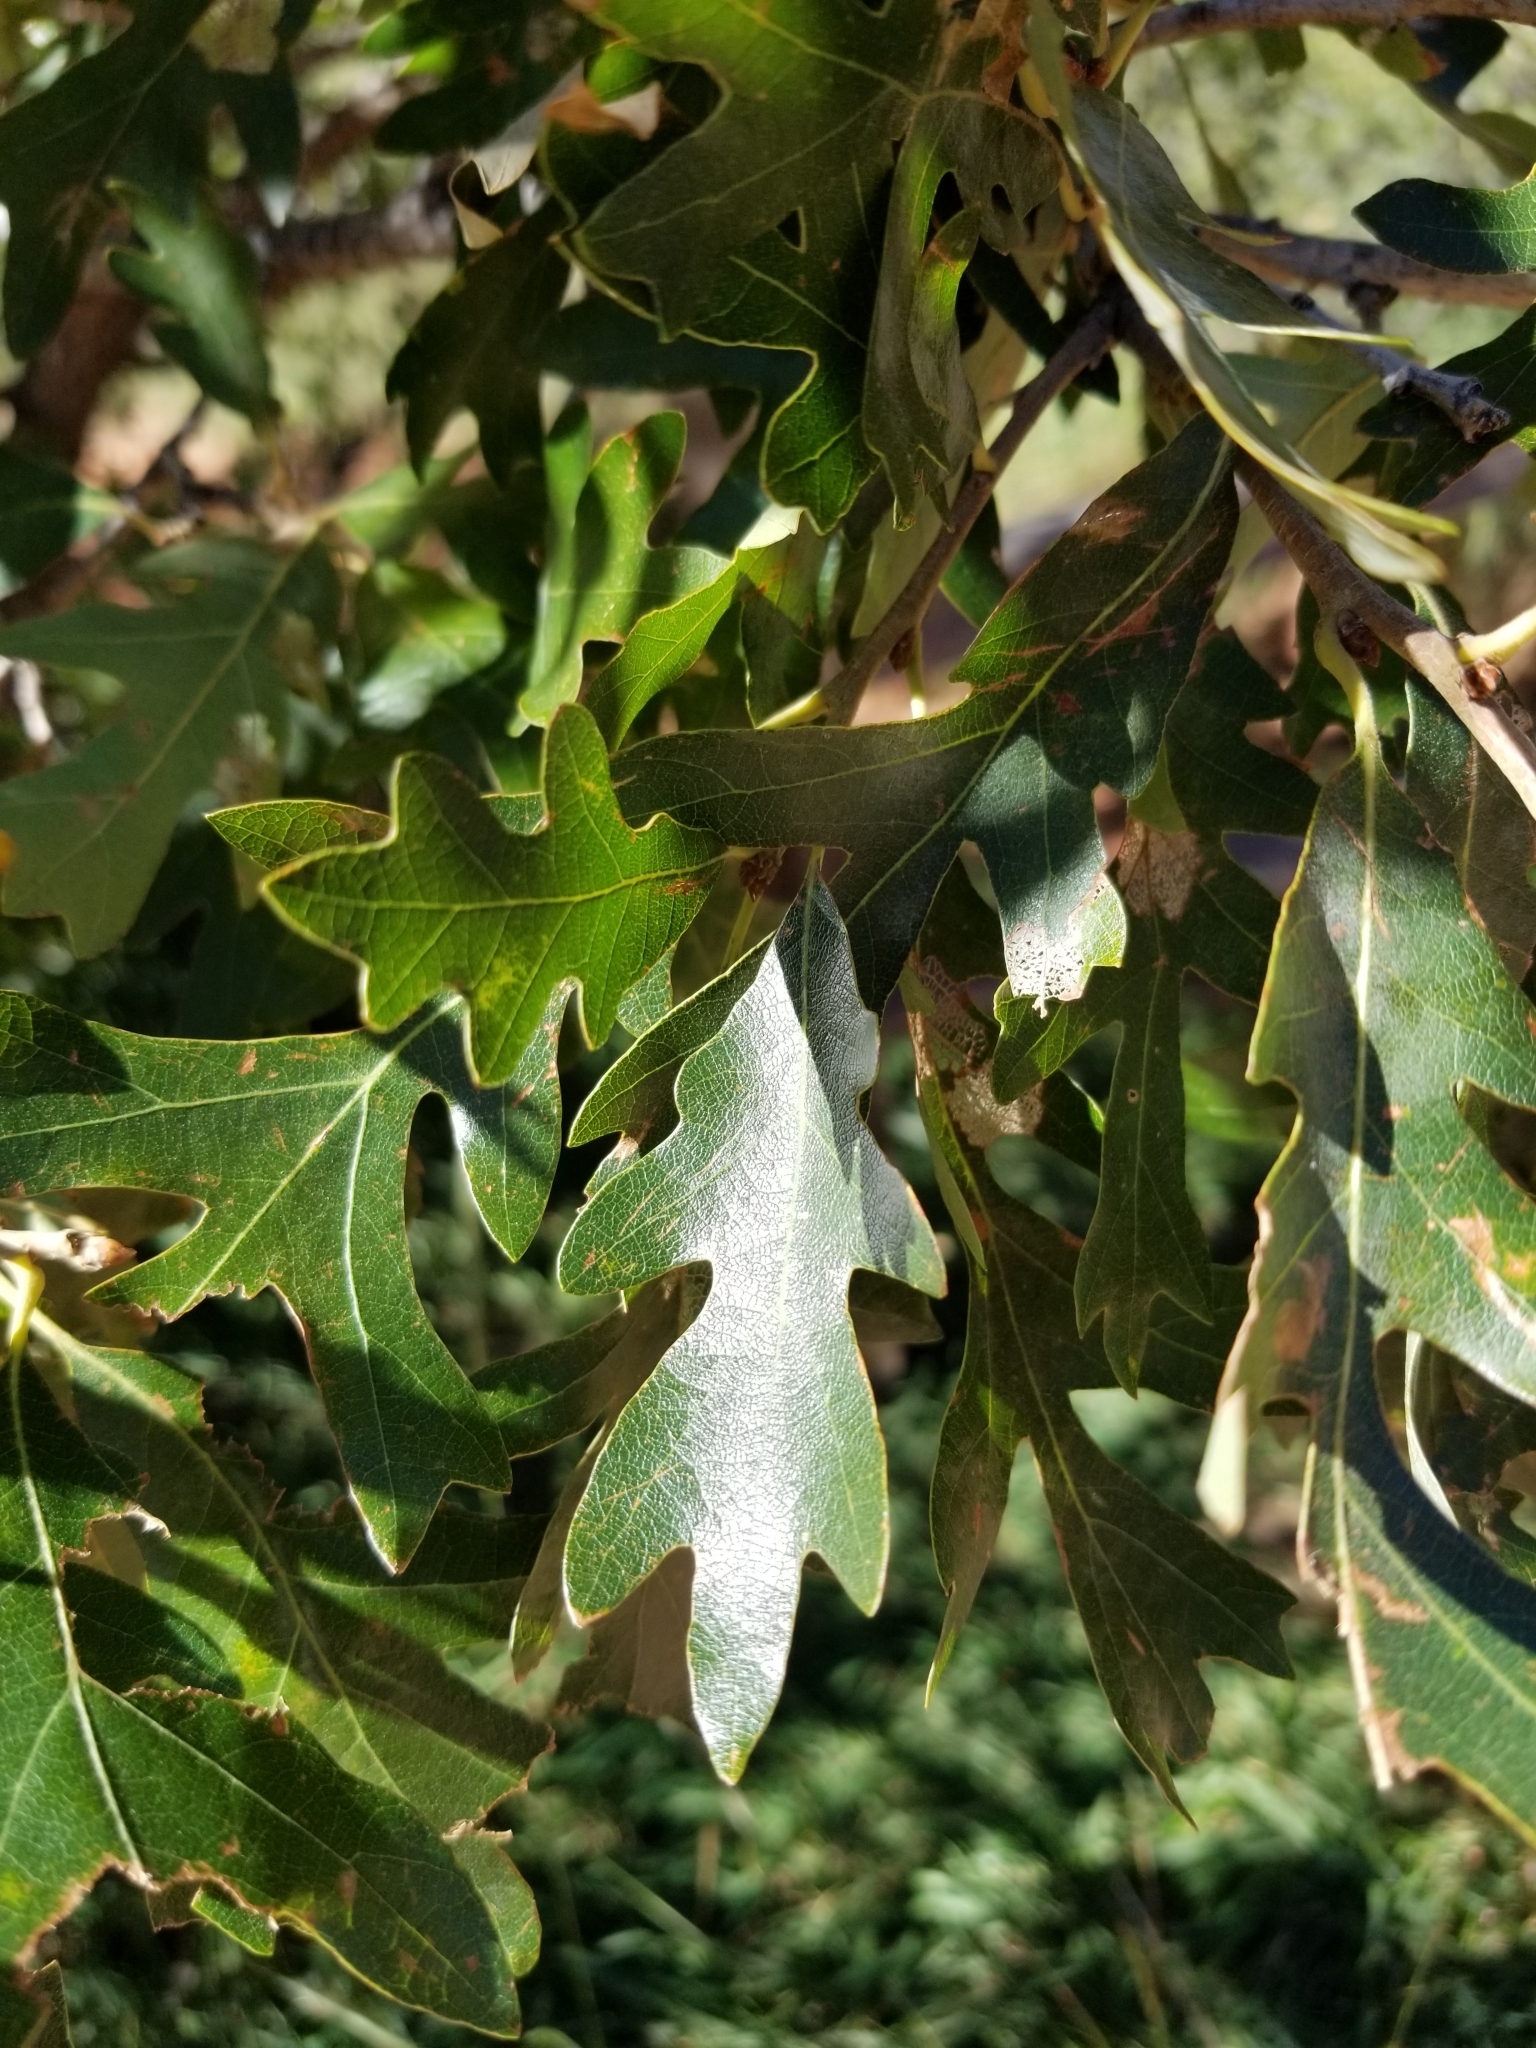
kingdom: Plantae
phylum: Tracheophyta
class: Magnoliopsida
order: Fagales
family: Fagaceae
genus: Quercus
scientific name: Quercus gambelii
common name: Gambel oak
